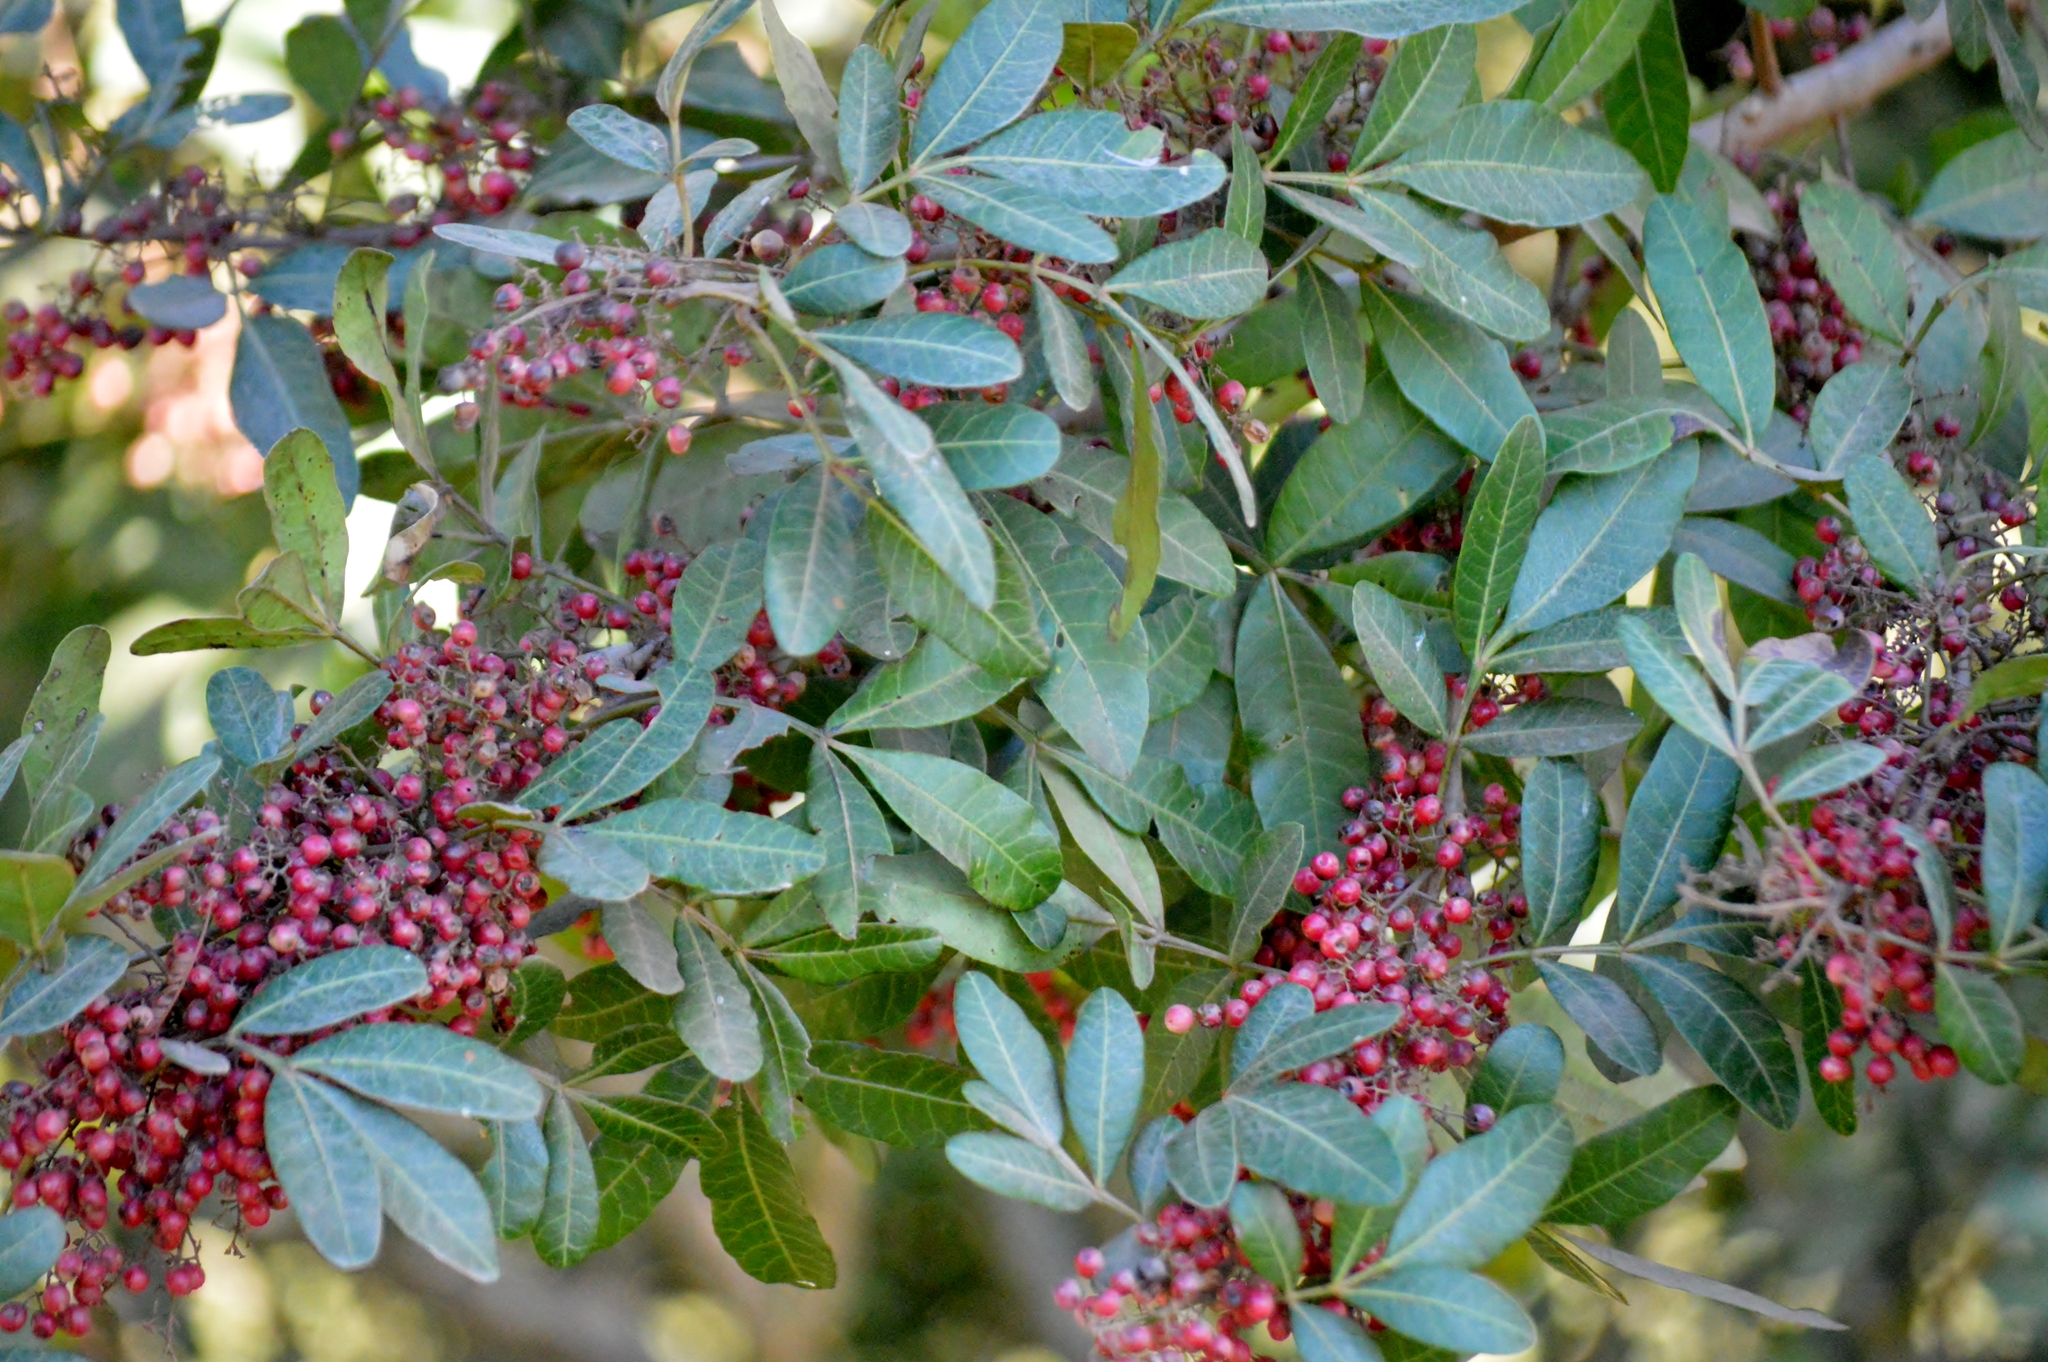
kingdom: Plantae
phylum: Tracheophyta
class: Magnoliopsida
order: Sapindales
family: Anacardiaceae
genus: Schinus
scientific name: Schinus terebinthifolia
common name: Brazilian peppertree
